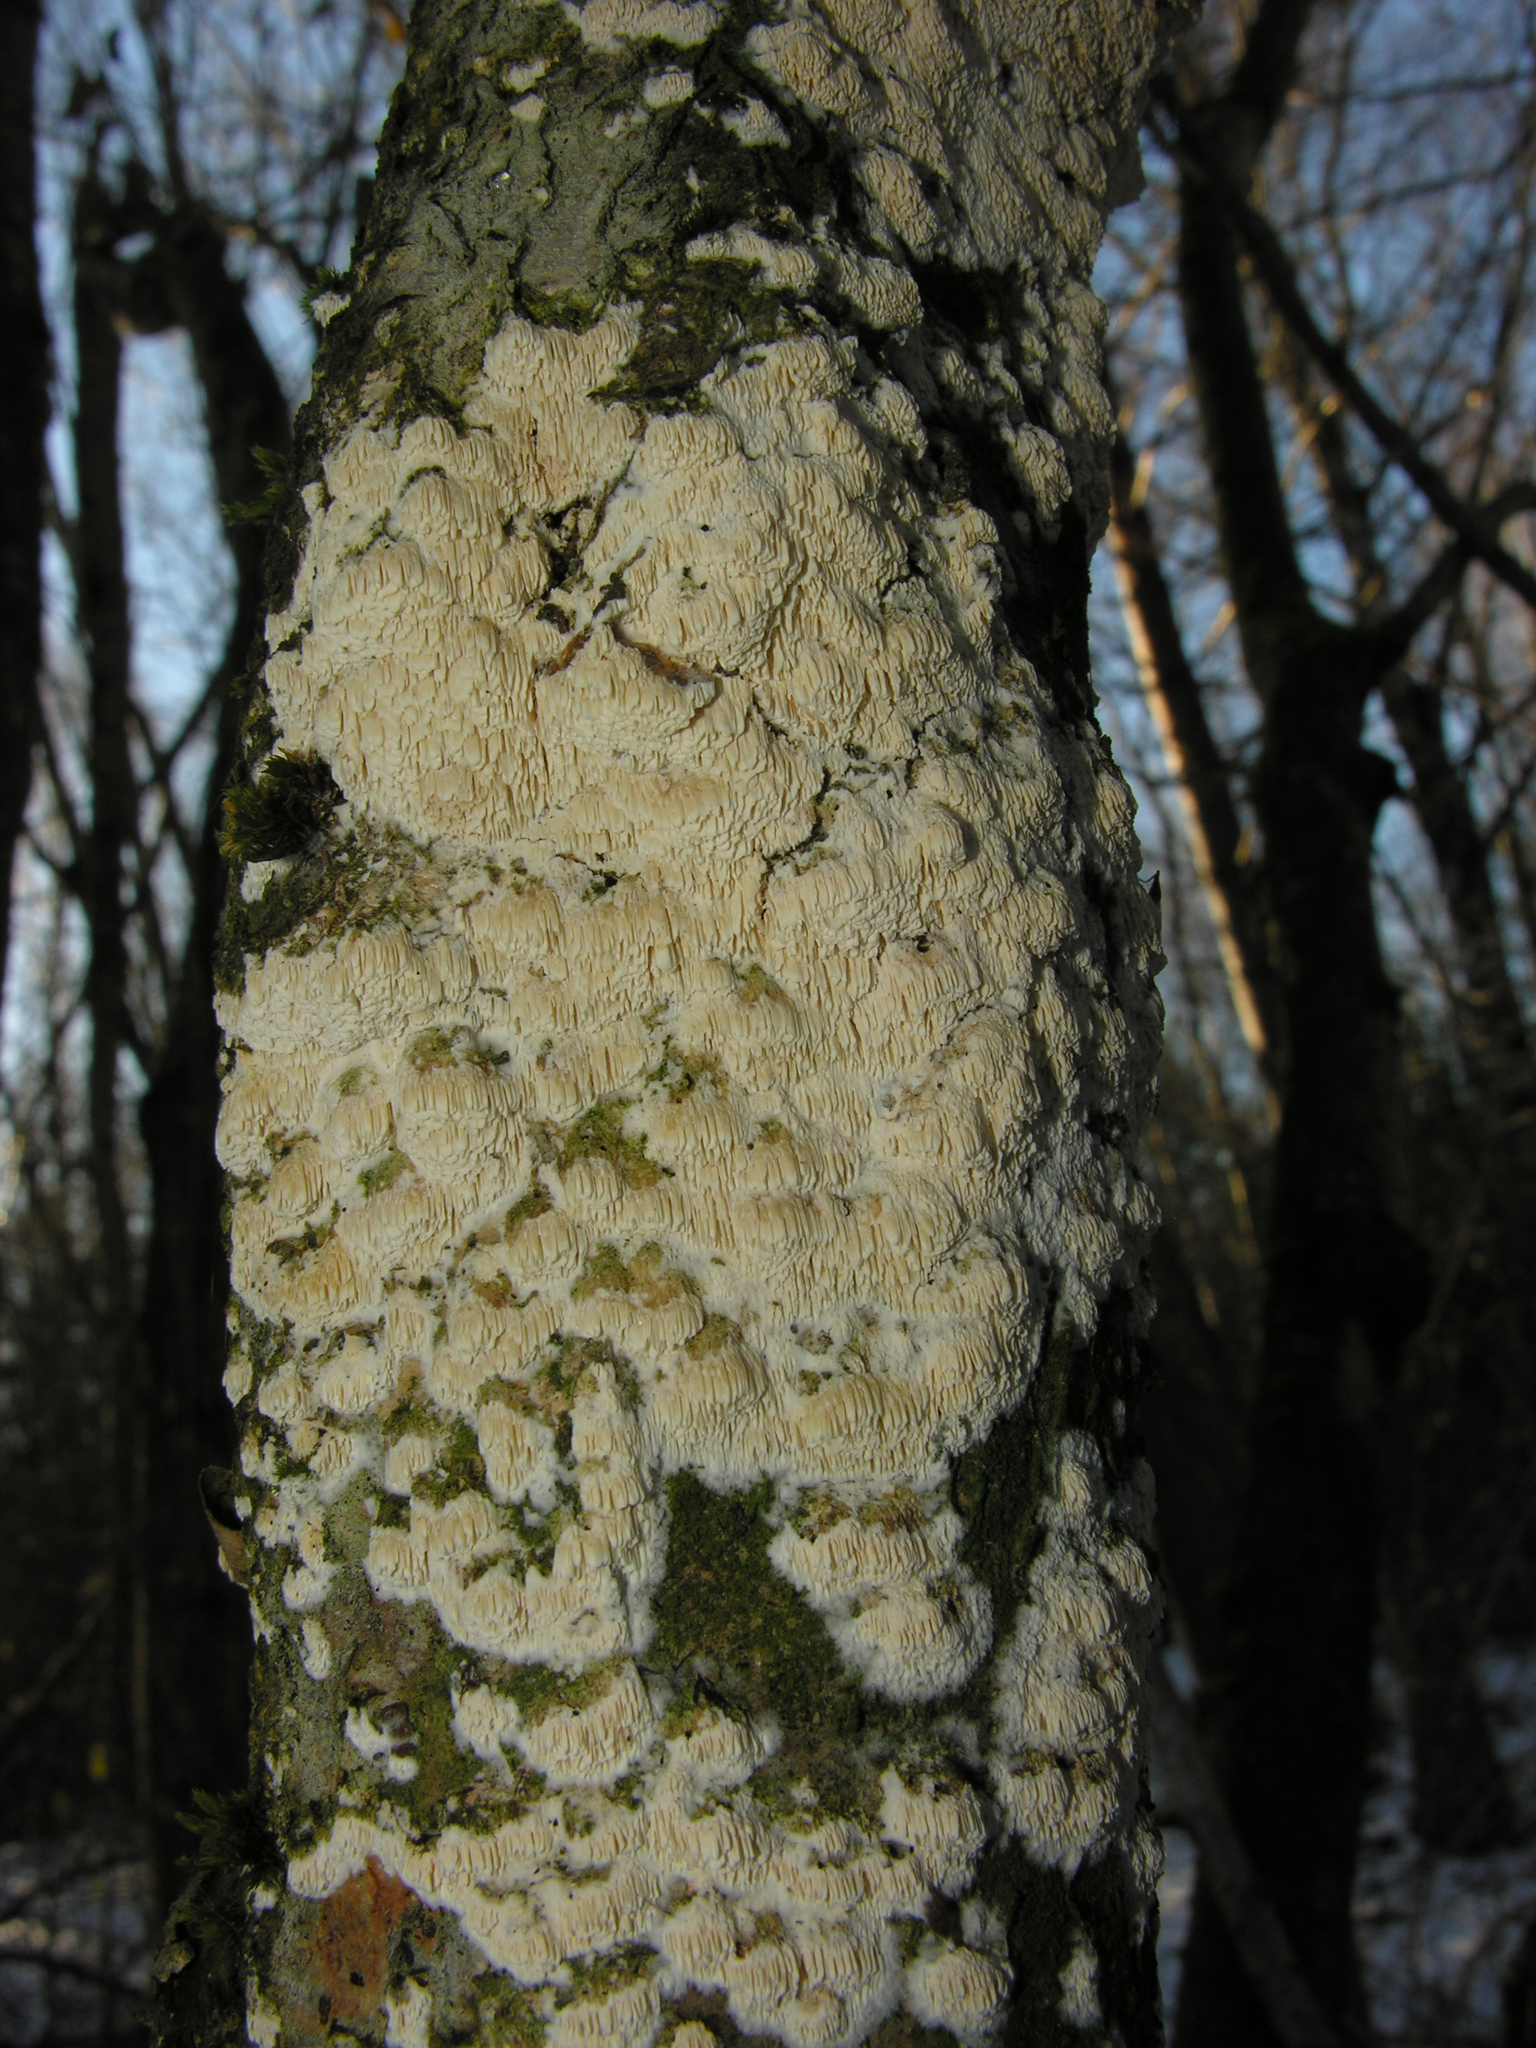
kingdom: Fungi
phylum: Basidiomycota
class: Agaricomycetes
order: Hymenochaetales
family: Schizoporaceae
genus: Schizopora
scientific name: Schizopora paradoxa
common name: Split porecrust
